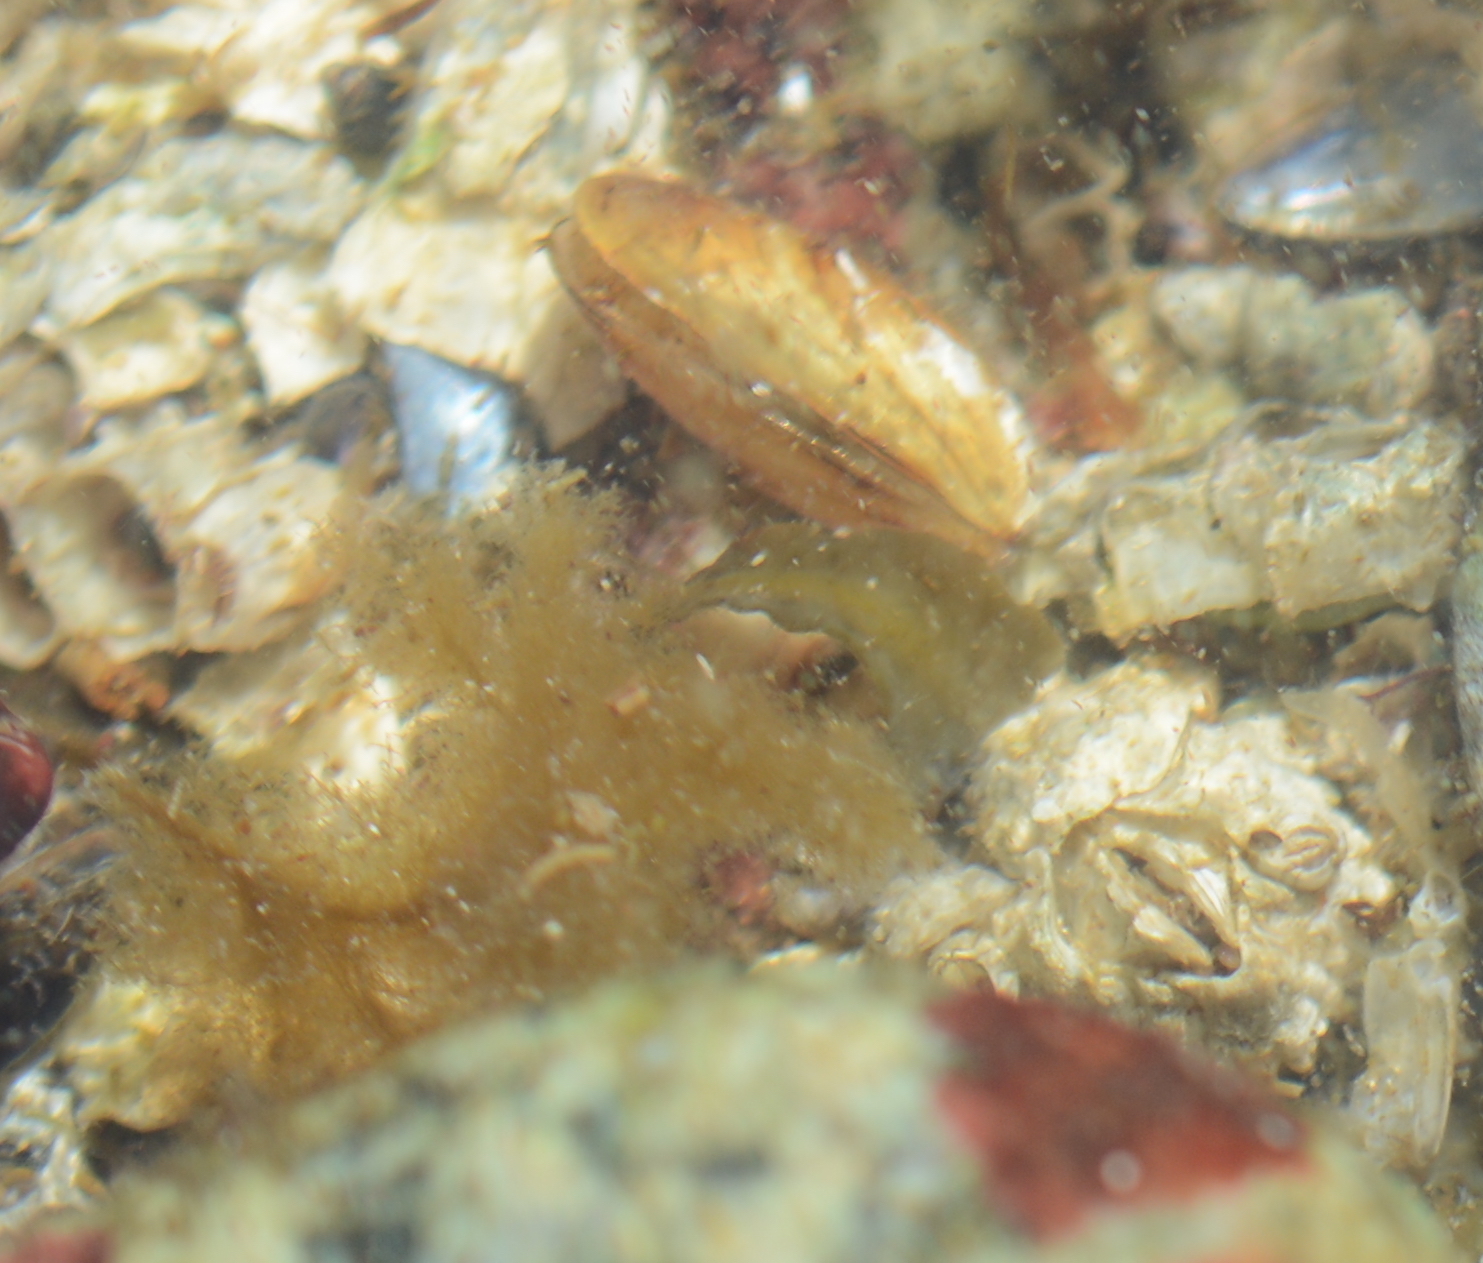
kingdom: Animalia
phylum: Mollusca
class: Bivalvia
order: Mytilida
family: Mytilidae
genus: Mytilus
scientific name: Mytilus
